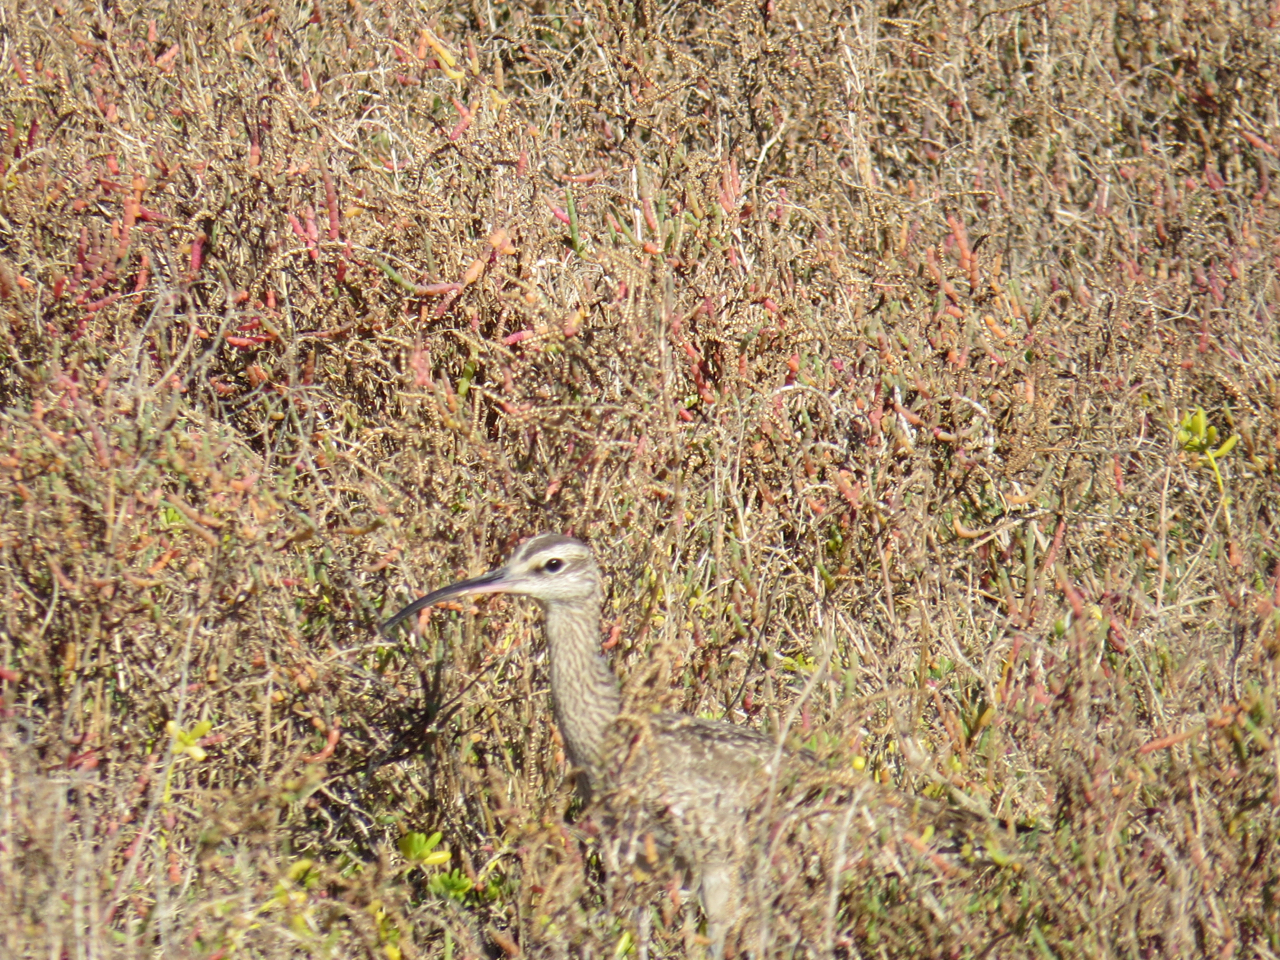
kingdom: Animalia
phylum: Chordata
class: Aves
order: Charadriiformes
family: Scolopacidae
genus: Numenius
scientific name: Numenius phaeopus
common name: Whimbrel
